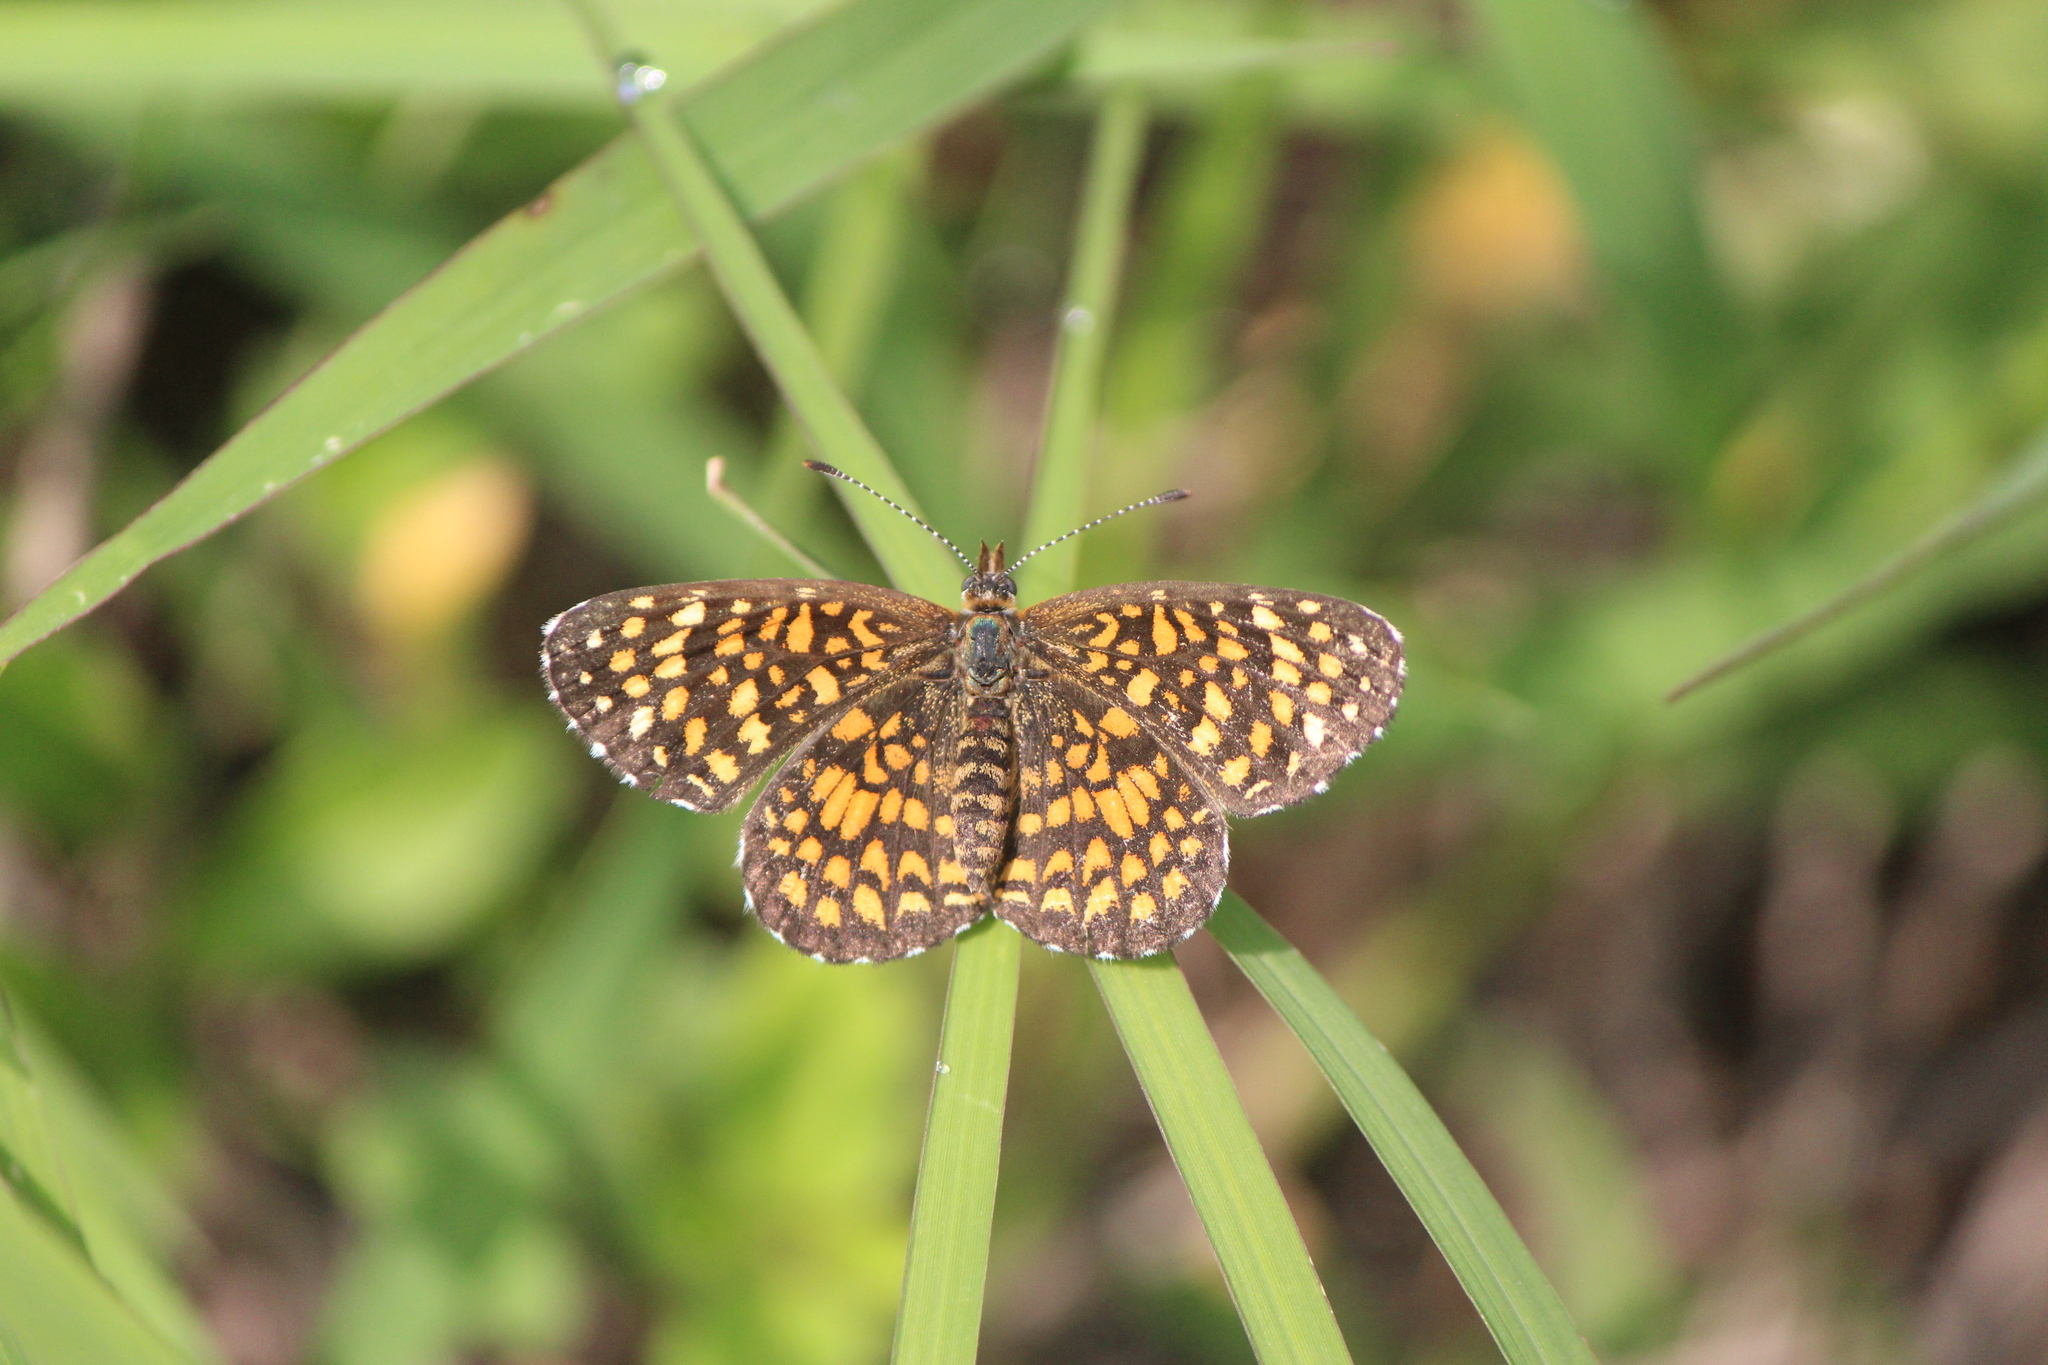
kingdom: Animalia
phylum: Arthropoda
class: Insecta
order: Lepidoptera
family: Nymphalidae
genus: Texola
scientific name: Texola elada
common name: Elada checkerspot
